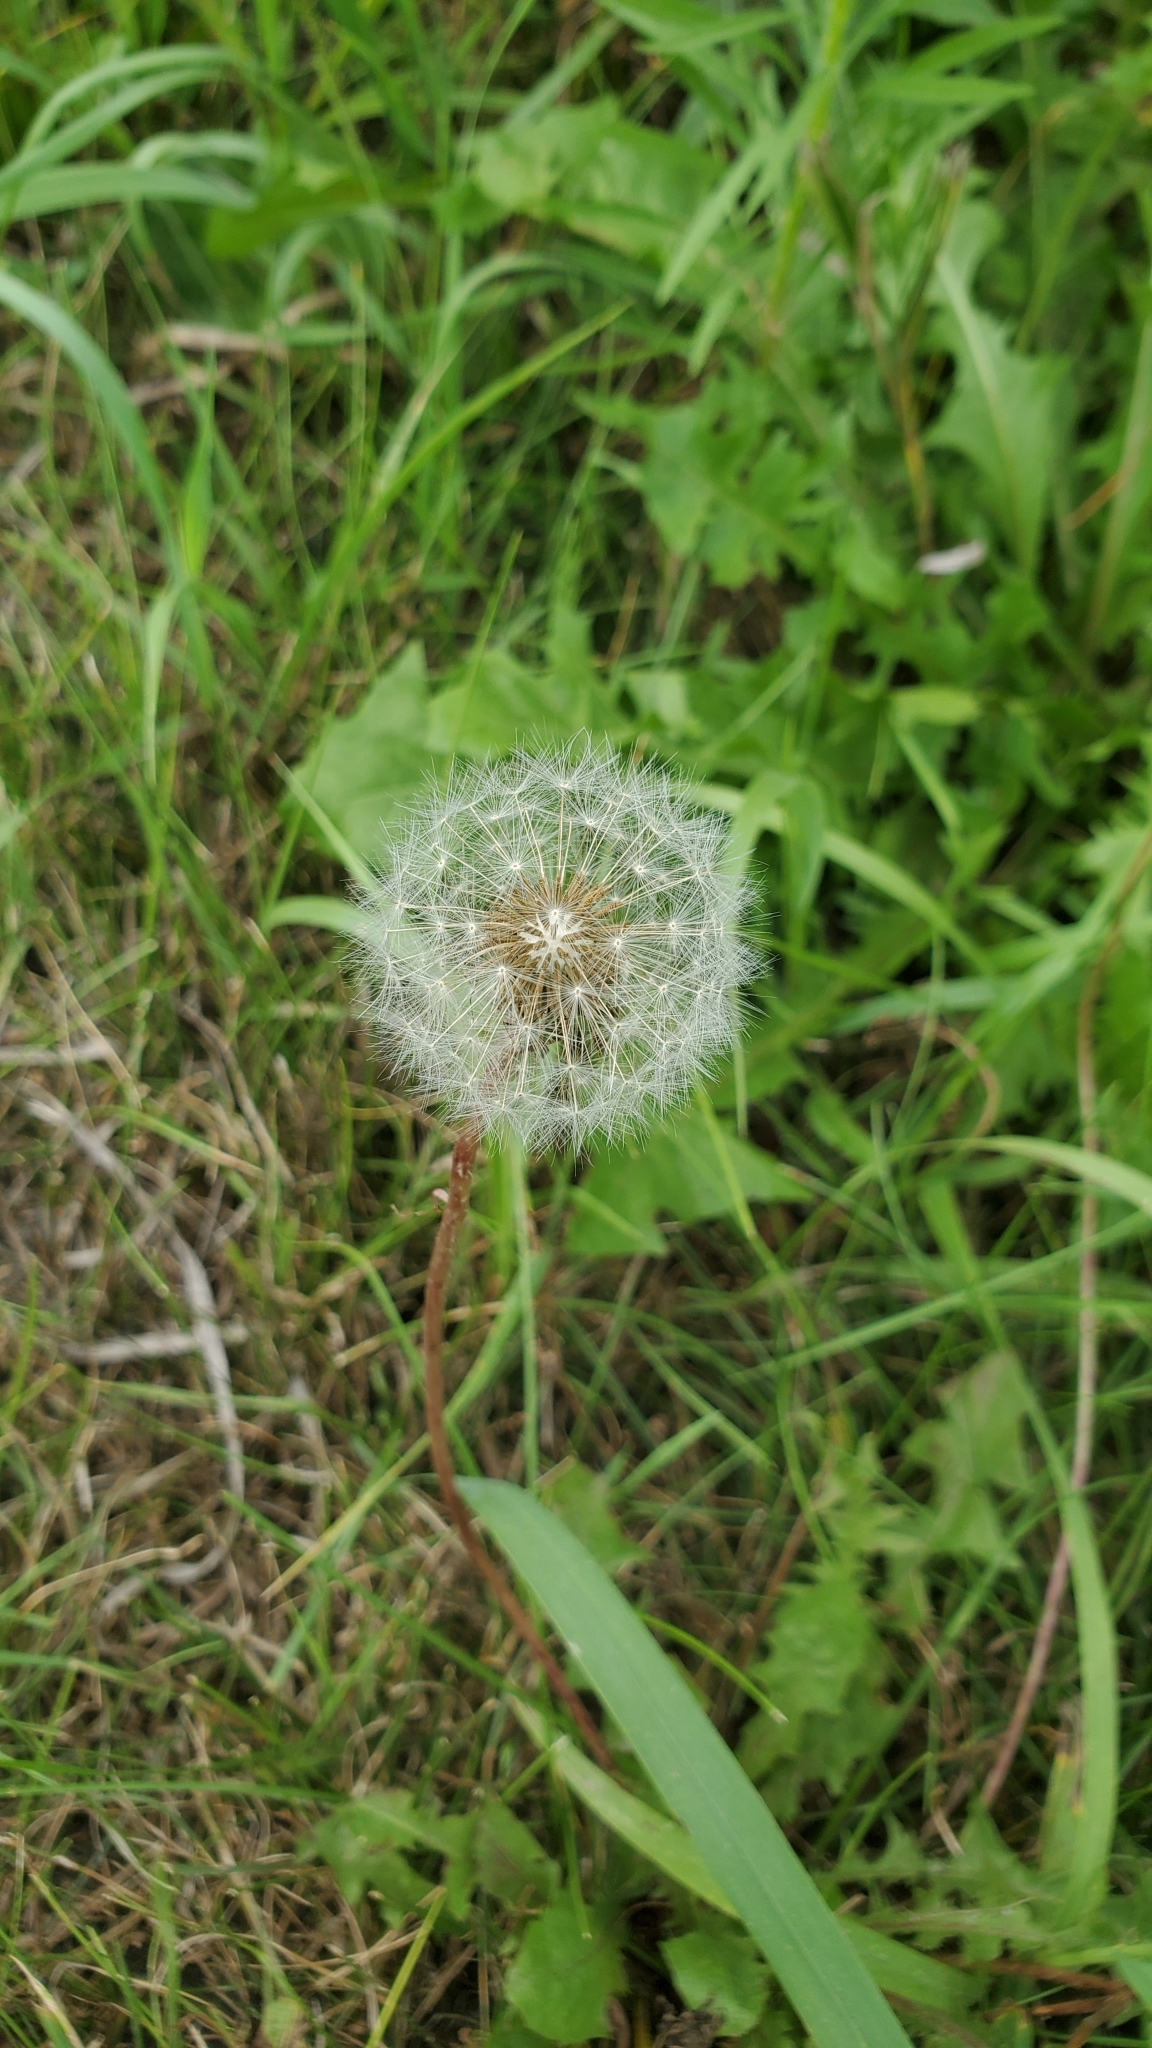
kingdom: Plantae
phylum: Tracheophyta
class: Magnoliopsida
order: Asterales
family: Asteraceae
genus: Taraxacum
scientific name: Taraxacum officinale
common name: Common dandelion
